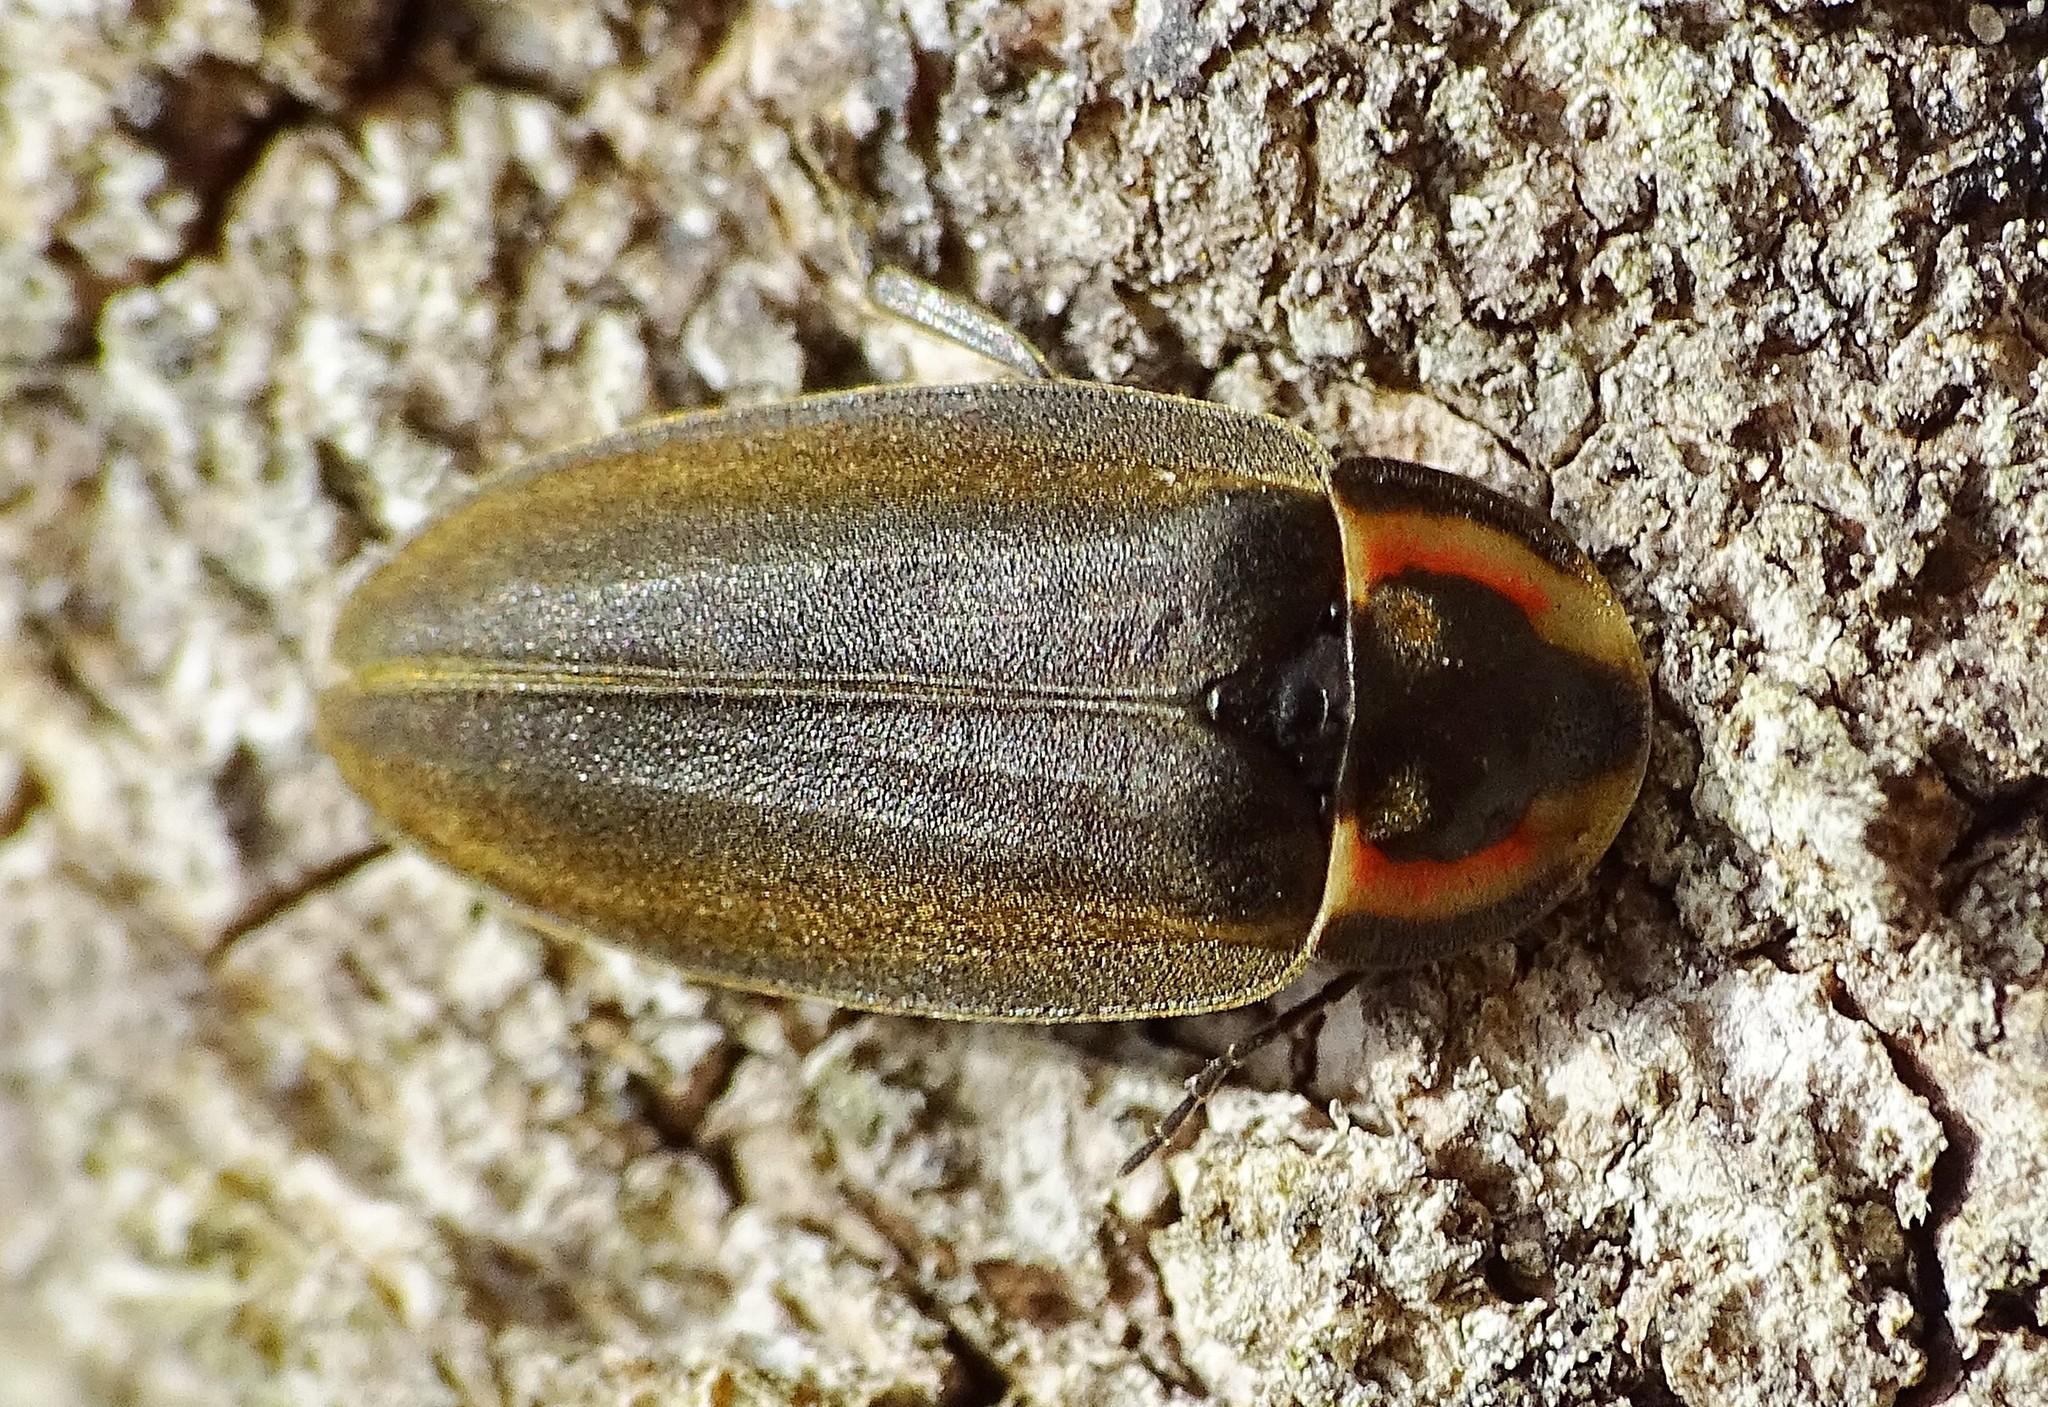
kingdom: Animalia
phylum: Arthropoda
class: Insecta
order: Coleoptera
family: Lampyridae
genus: Photinus
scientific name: Photinus corrusca
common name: Winter firefly
